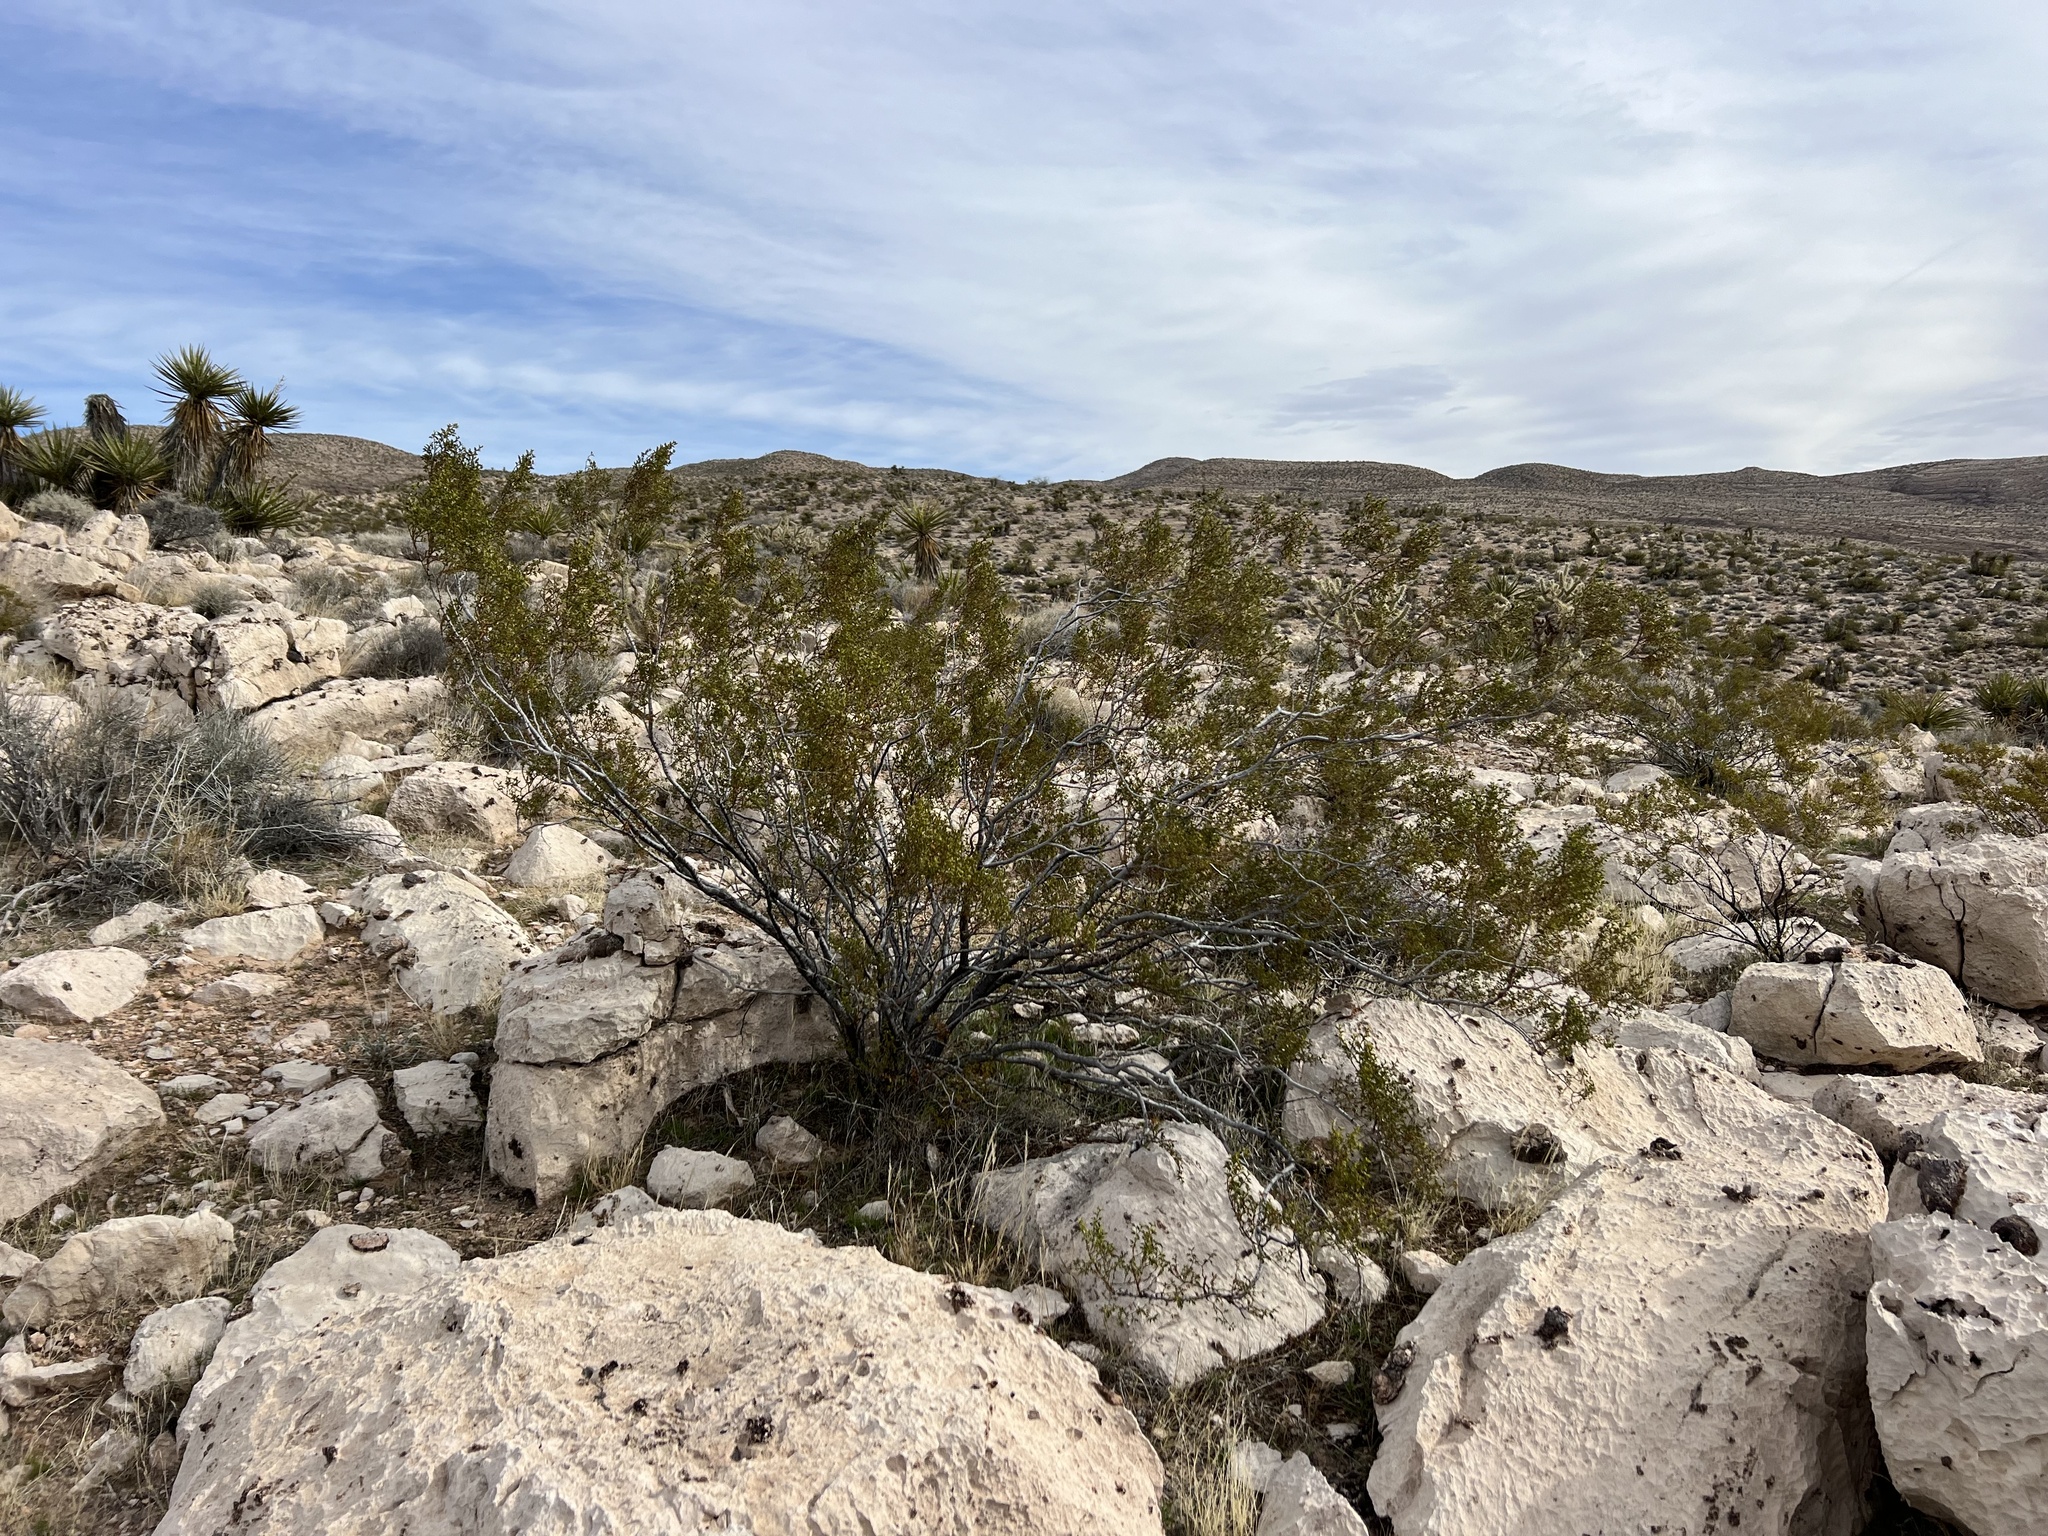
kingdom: Plantae
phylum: Tracheophyta
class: Magnoliopsida
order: Zygophyllales
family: Zygophyllaceae
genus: Larrea
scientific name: Larrea tridentata
